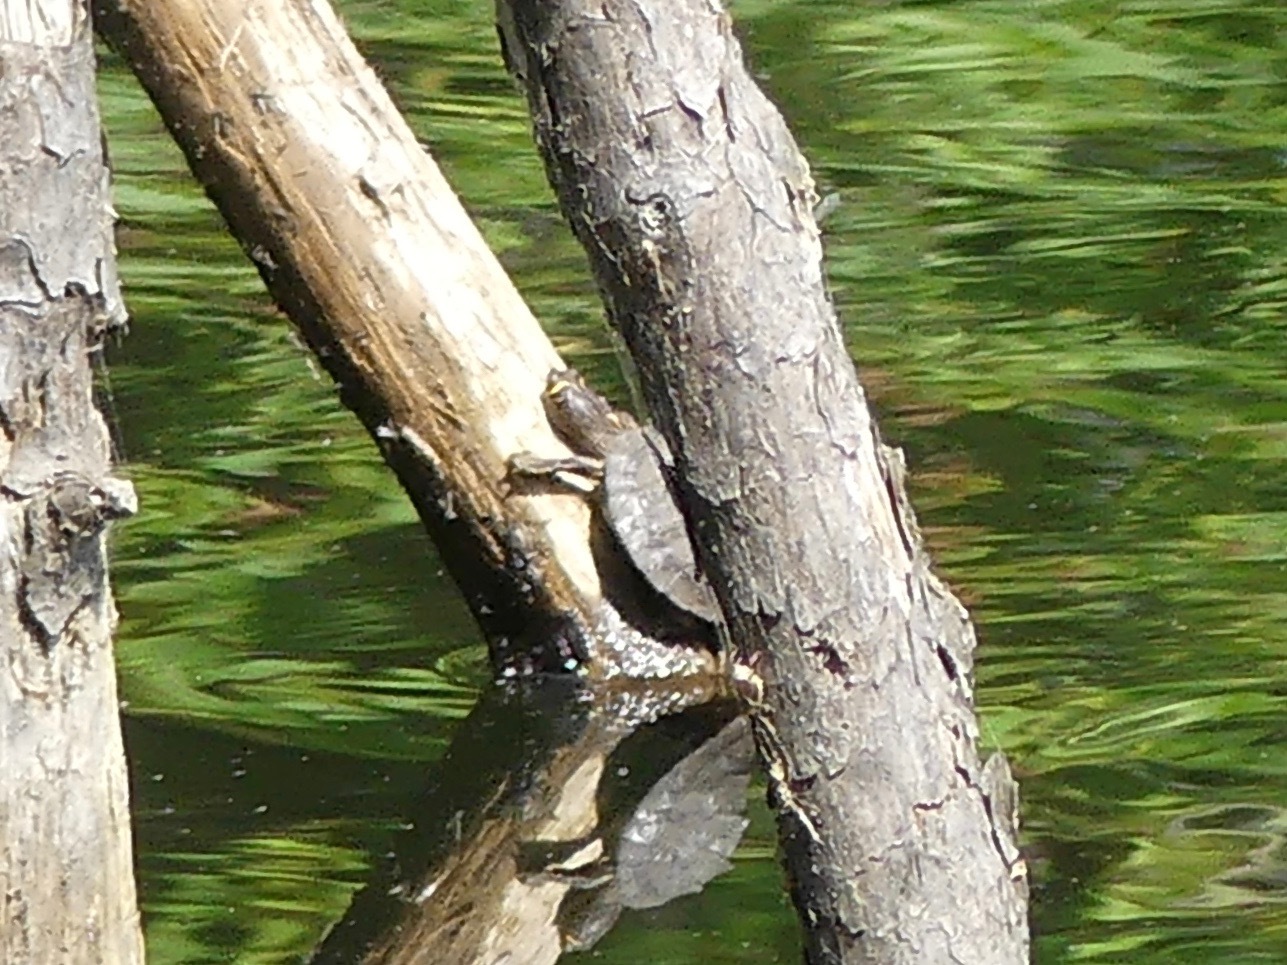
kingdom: Animalia
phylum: Chordata
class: Testudines
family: Emydidae
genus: Graptemys
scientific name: Graptemys pseudogeographica
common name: False map turtle
